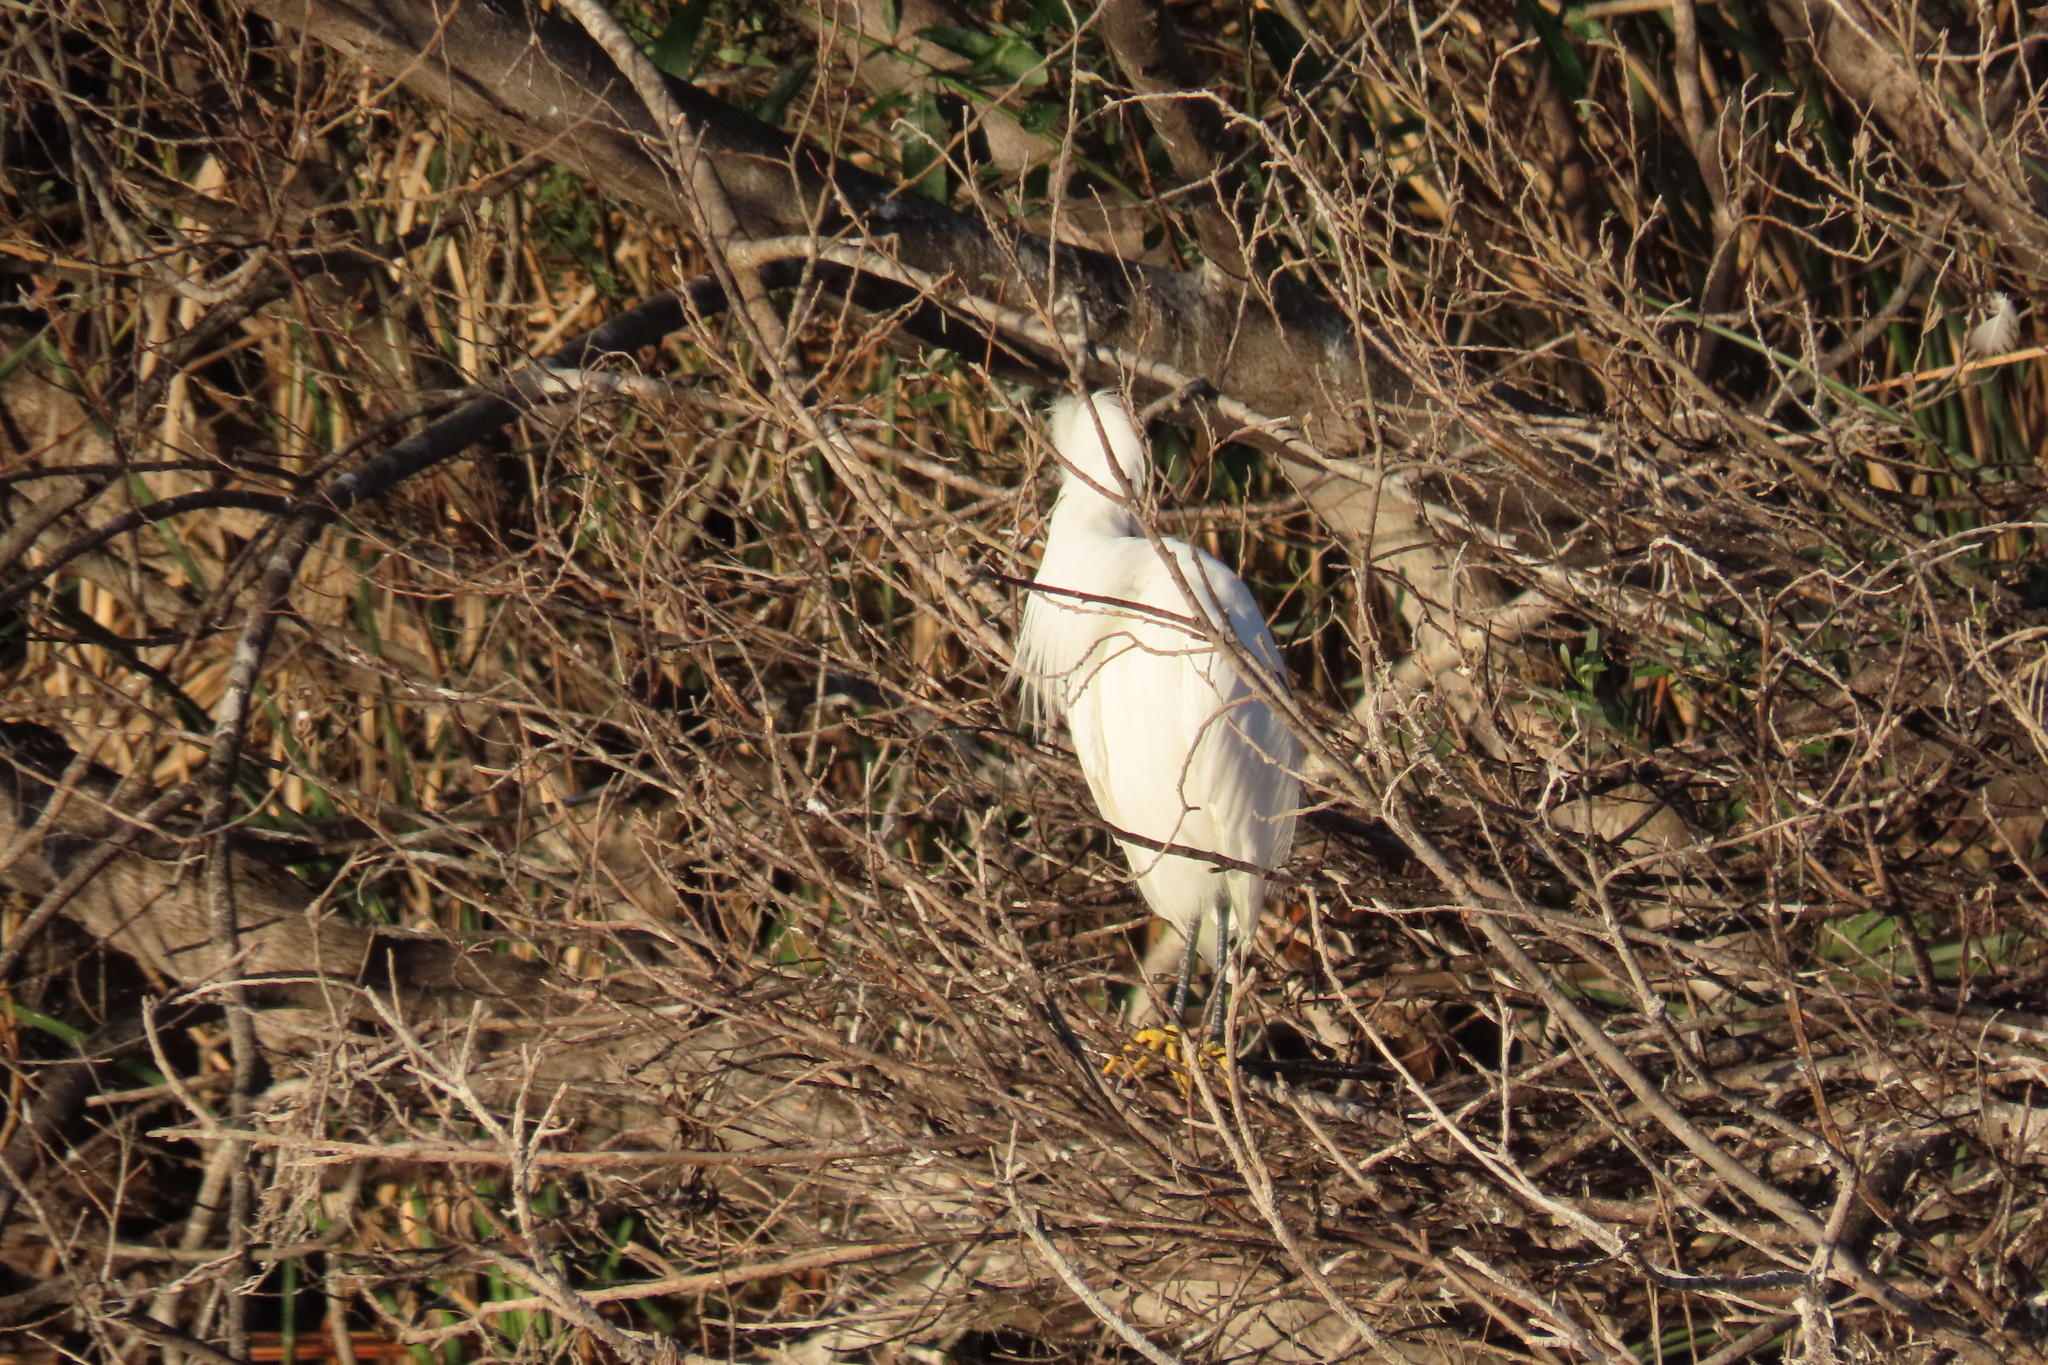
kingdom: Animalia
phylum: Chordata
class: Aves
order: Pelecaniformes
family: Ardeidae
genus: Egretta
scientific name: Egretta thula
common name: Snowy egret
